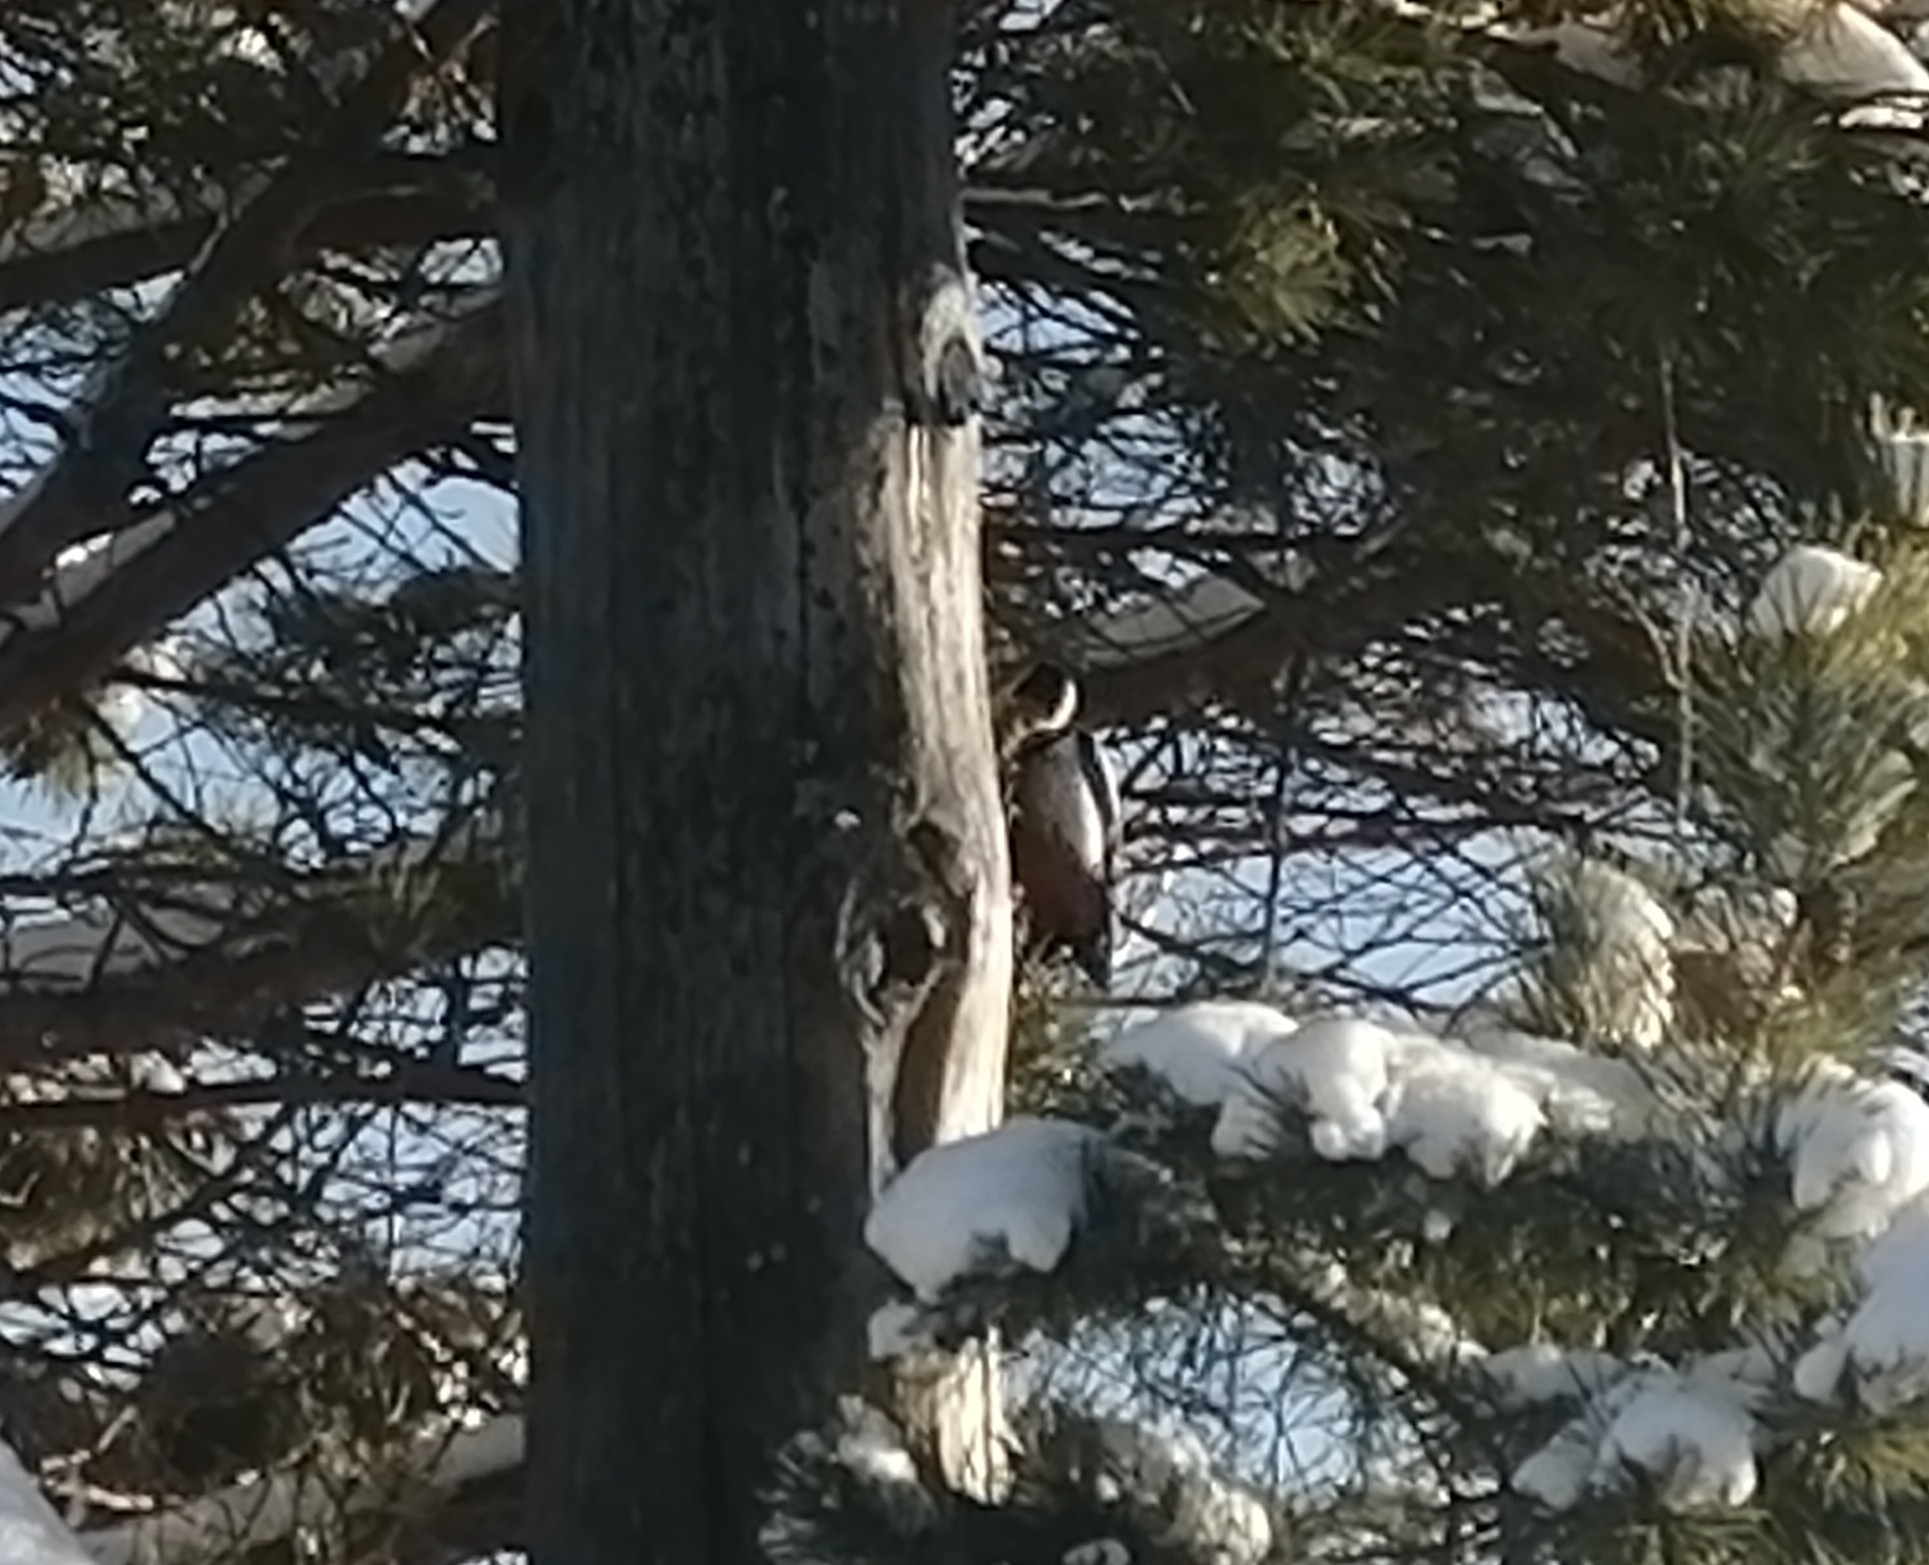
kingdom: Animalia
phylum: Chordata
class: Aves
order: Piciformes
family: Picidae
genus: Dendrocopos
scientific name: Dendrocopos major
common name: Great spotted woodpecker
